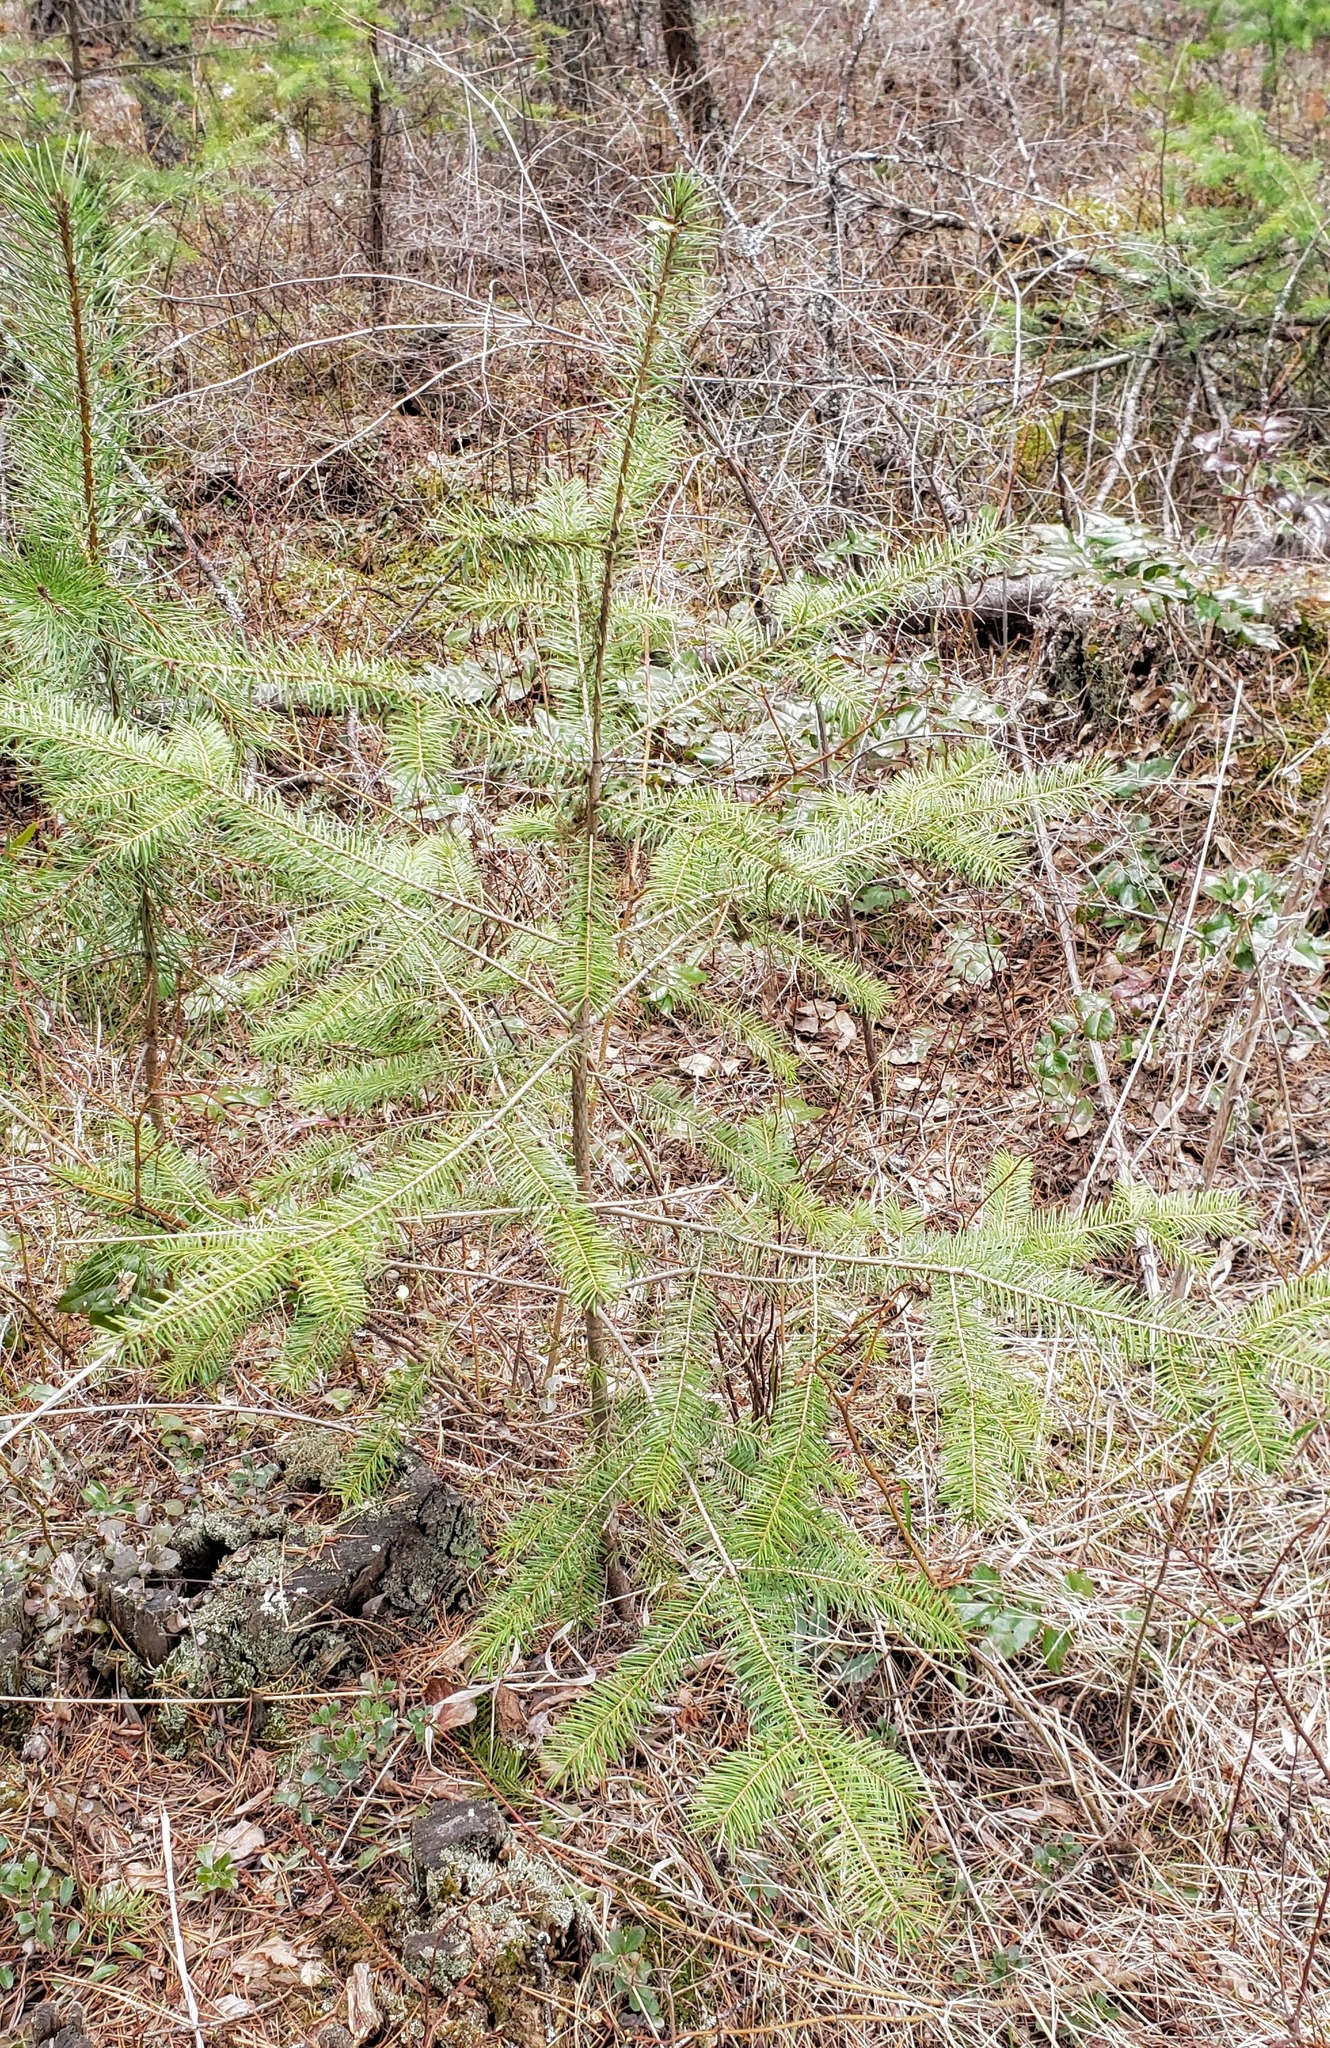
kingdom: Plantae
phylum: Tracheophyta
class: Pinopsida
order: Pinales
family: Pinaceae
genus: Pseudotsuga
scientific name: Pseudotsuga menziesii
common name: Douglas fir
